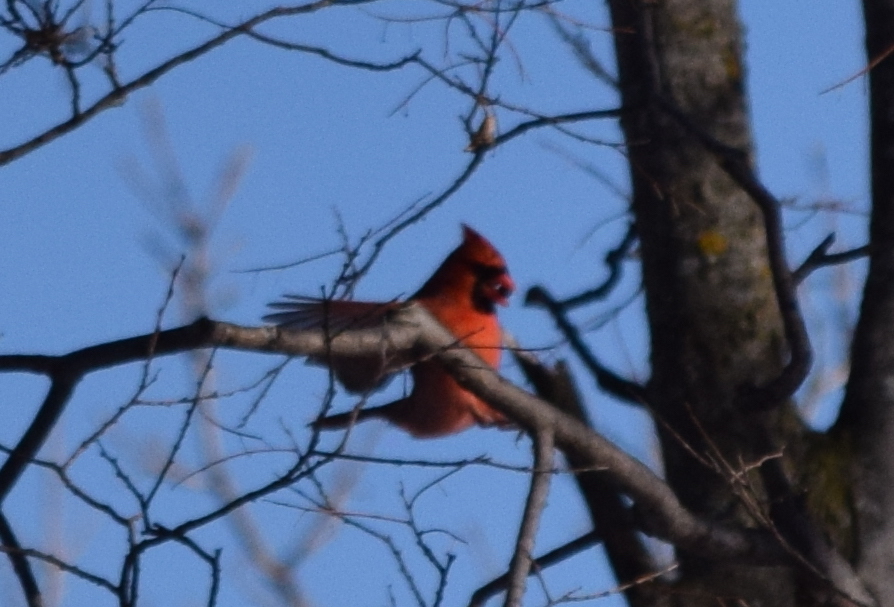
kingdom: Animalia
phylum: Chordata
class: Aves
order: Passeriformes
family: Cardinalidae
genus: Cardinalis
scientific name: Cardinalis cardinalis
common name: Northern cardinal
